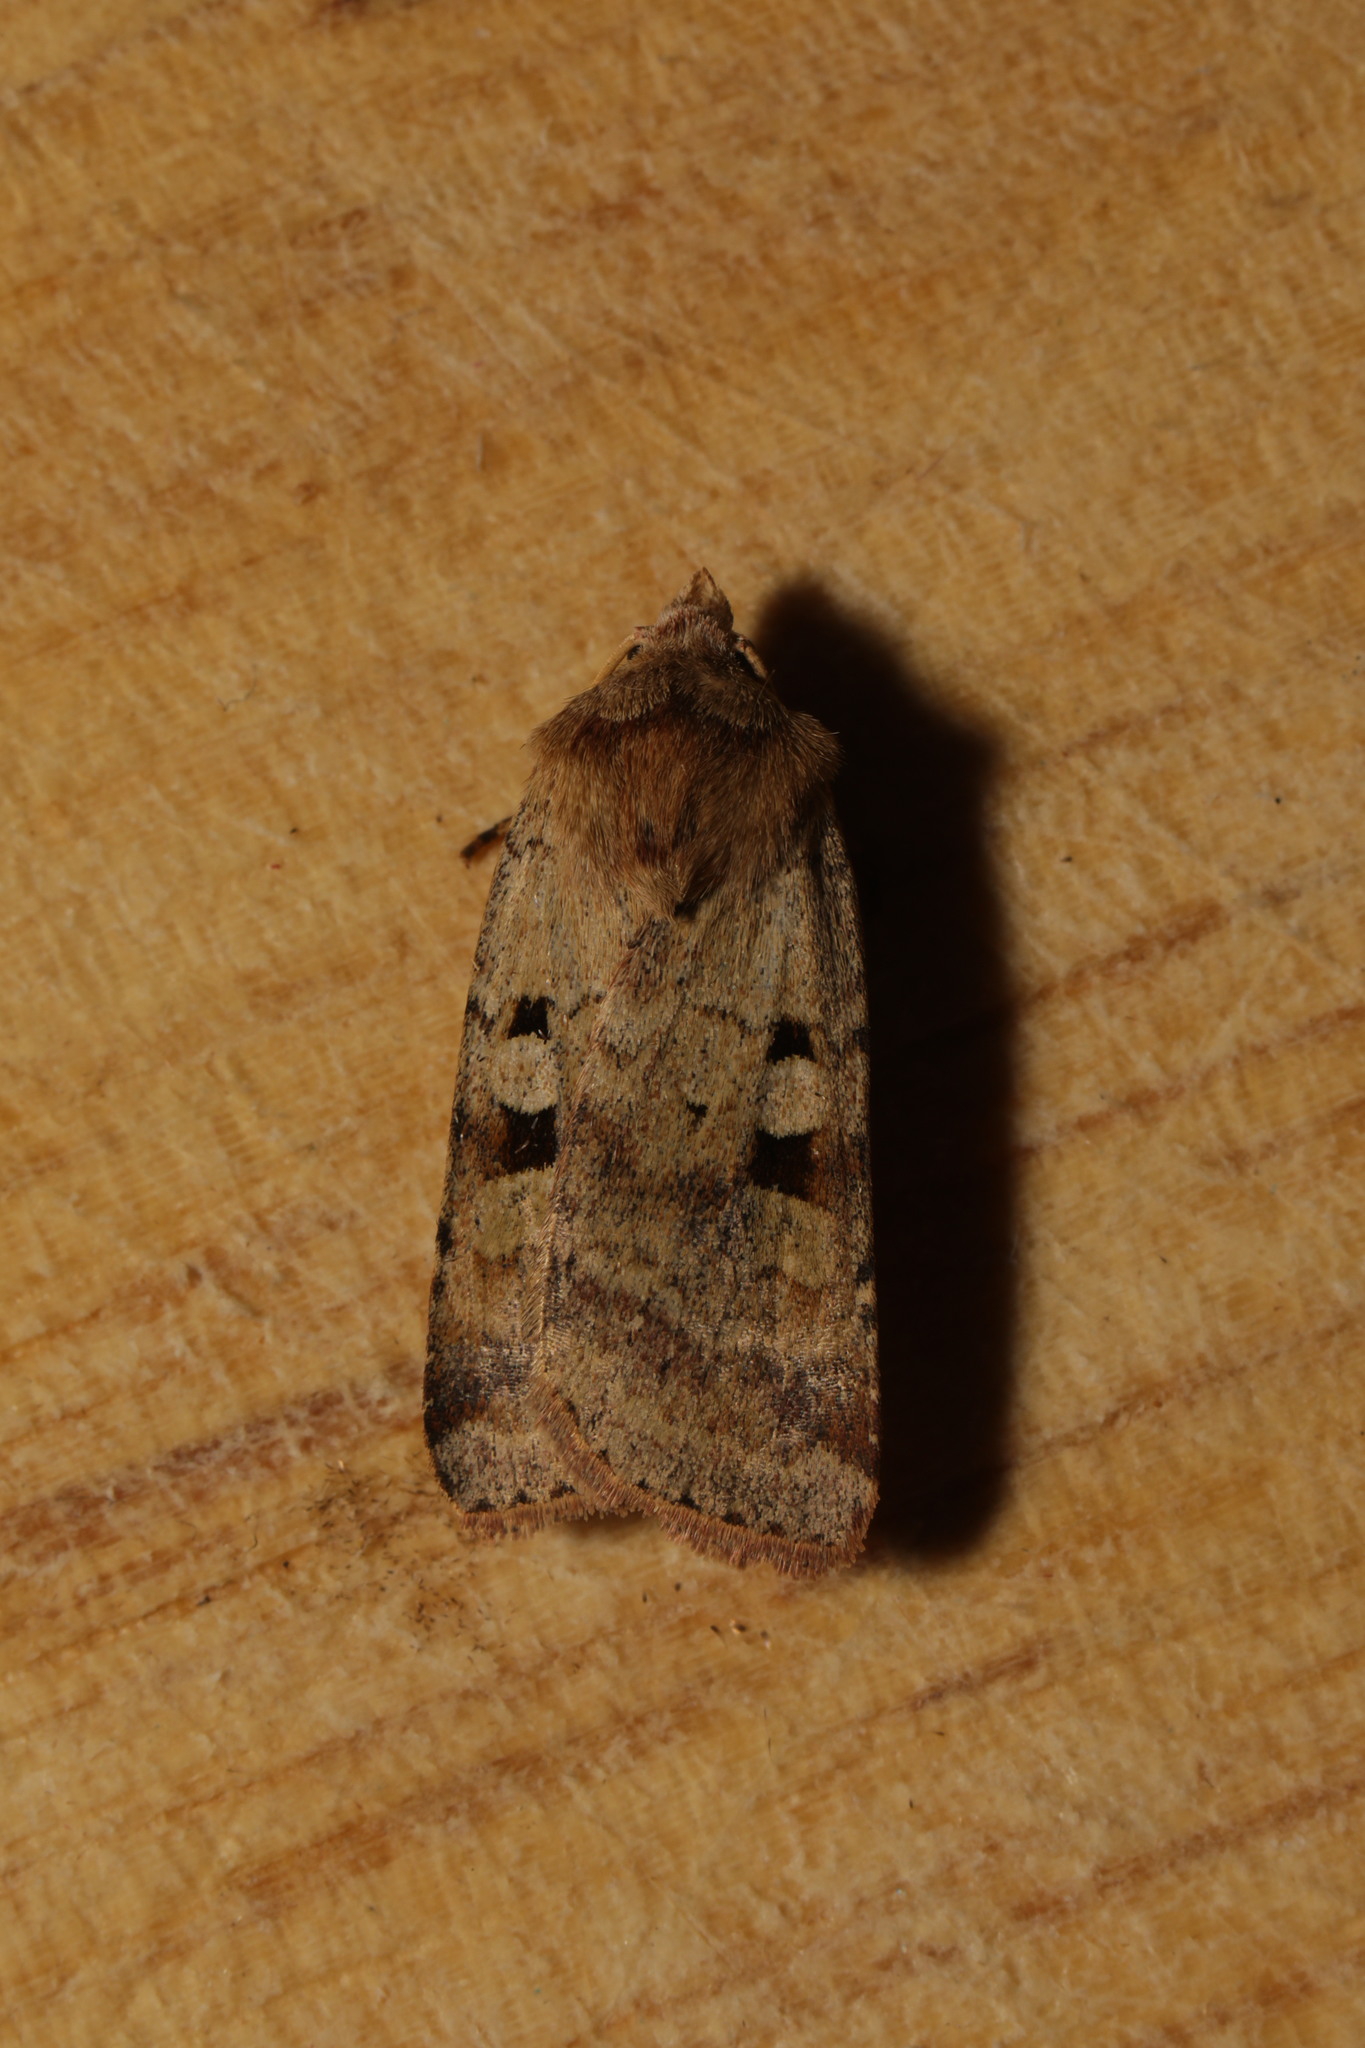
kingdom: Animalia
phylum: Arthropoda
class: Insecta
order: Lepidoptera
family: Noctuidae
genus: Diarsia
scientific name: Diarsia mendica
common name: Ingrailed clay
